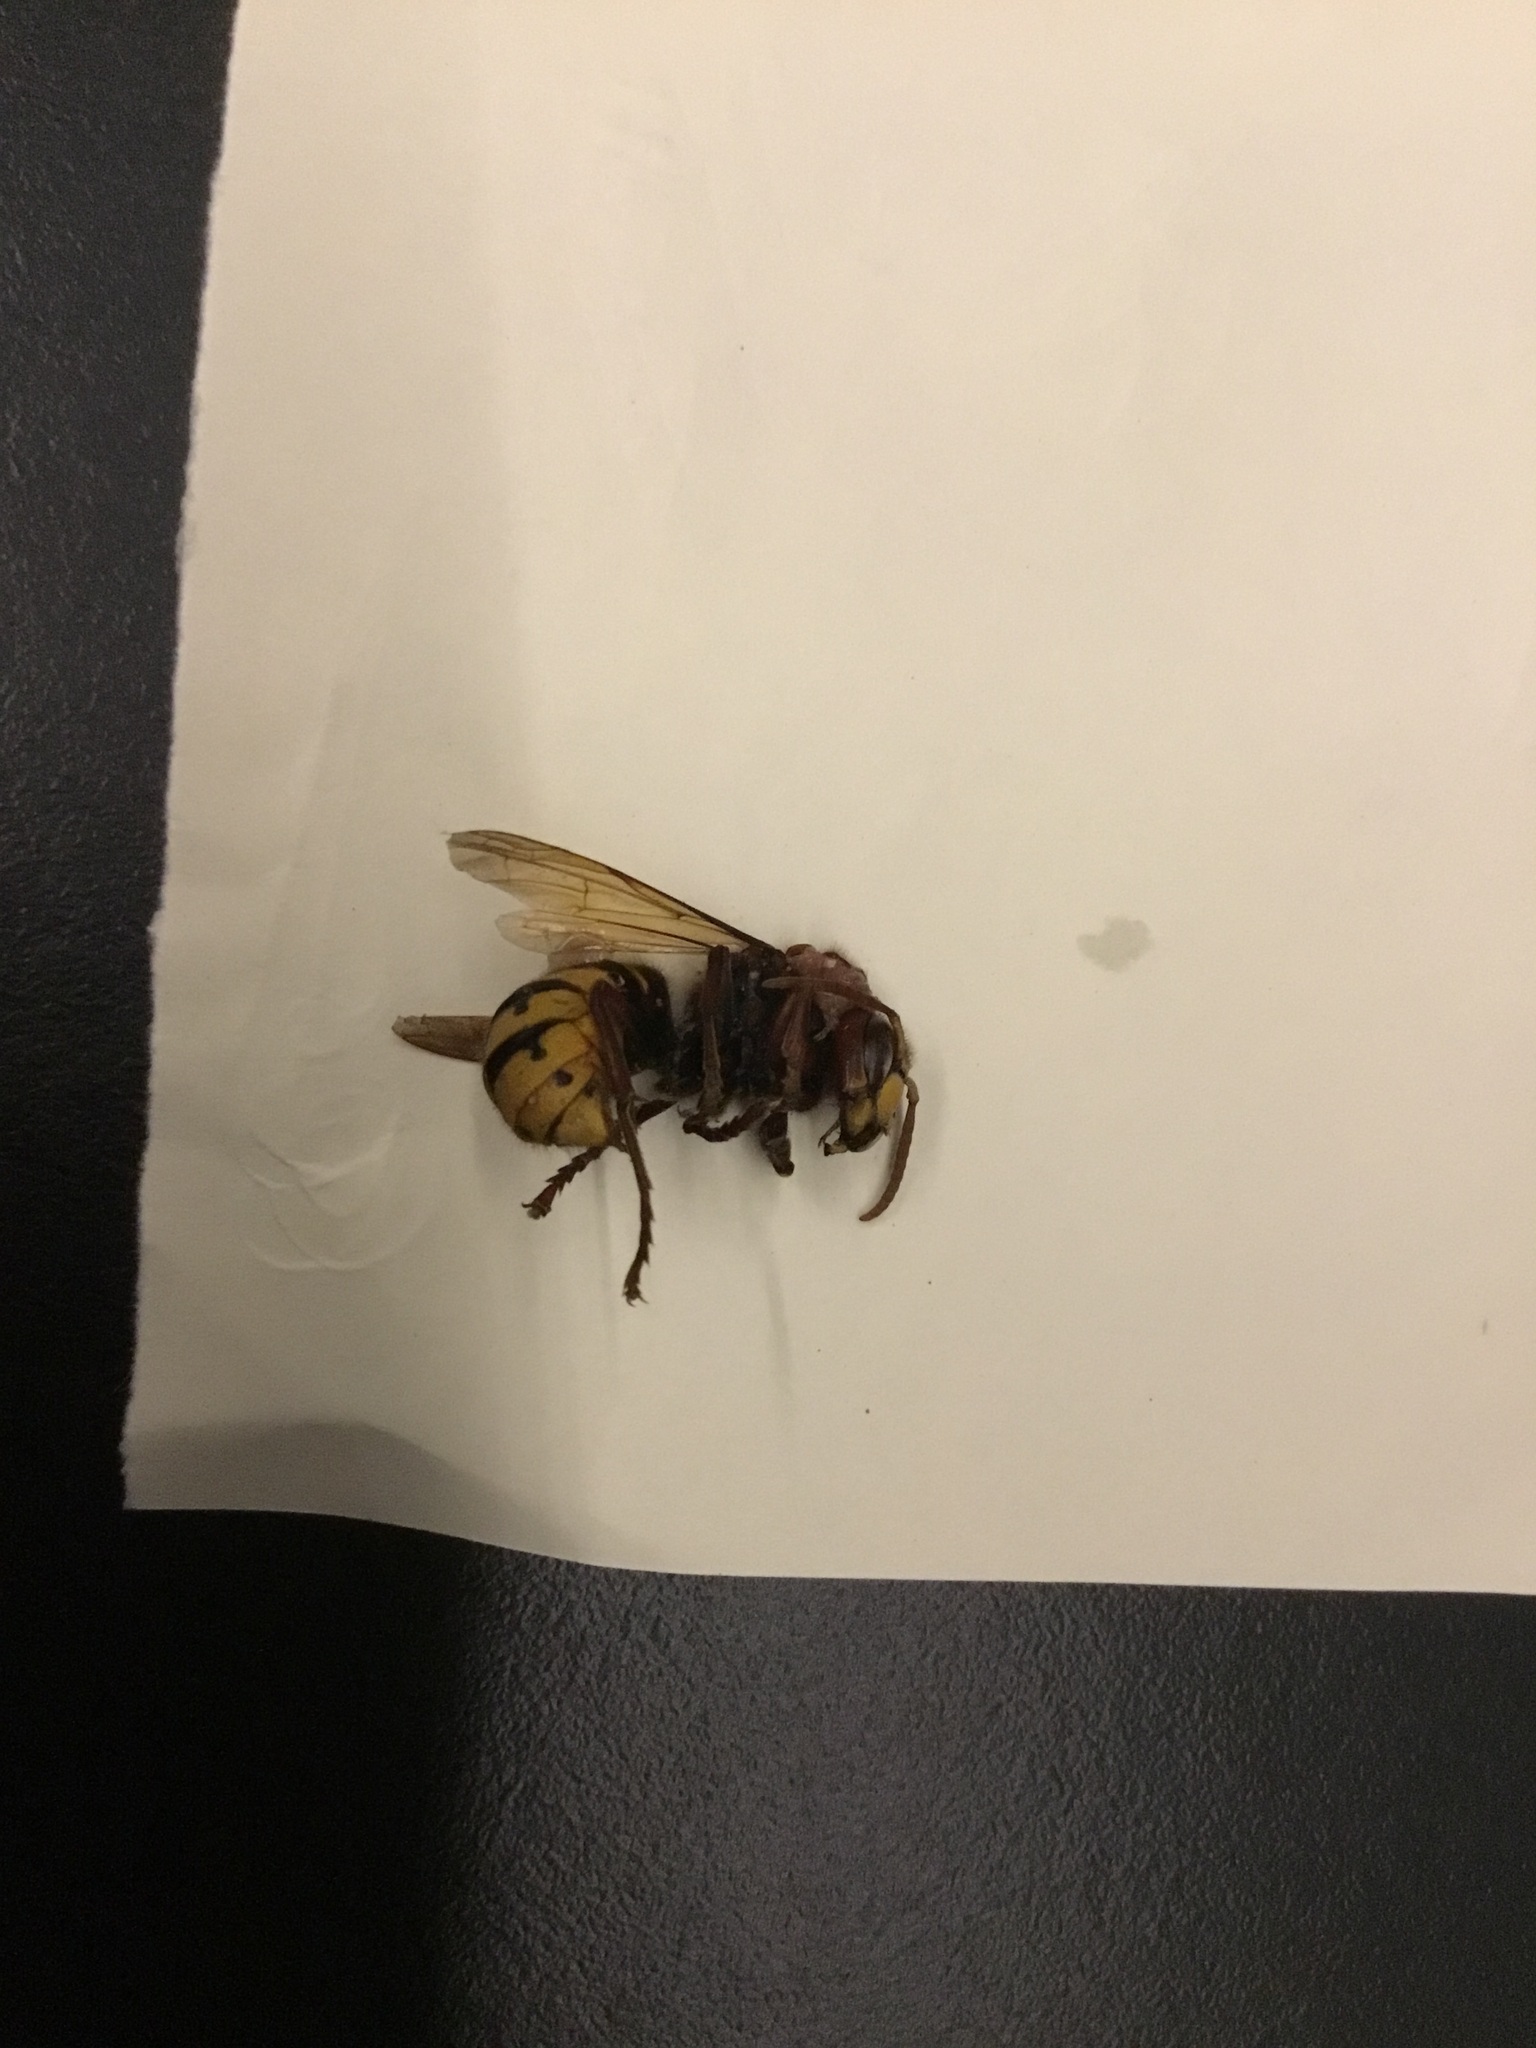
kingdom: Animalia
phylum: Arthropoda
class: Insecta
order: Hymenoptera
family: Vespidae
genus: Vespa
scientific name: Vespa crabro
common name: Hornet
